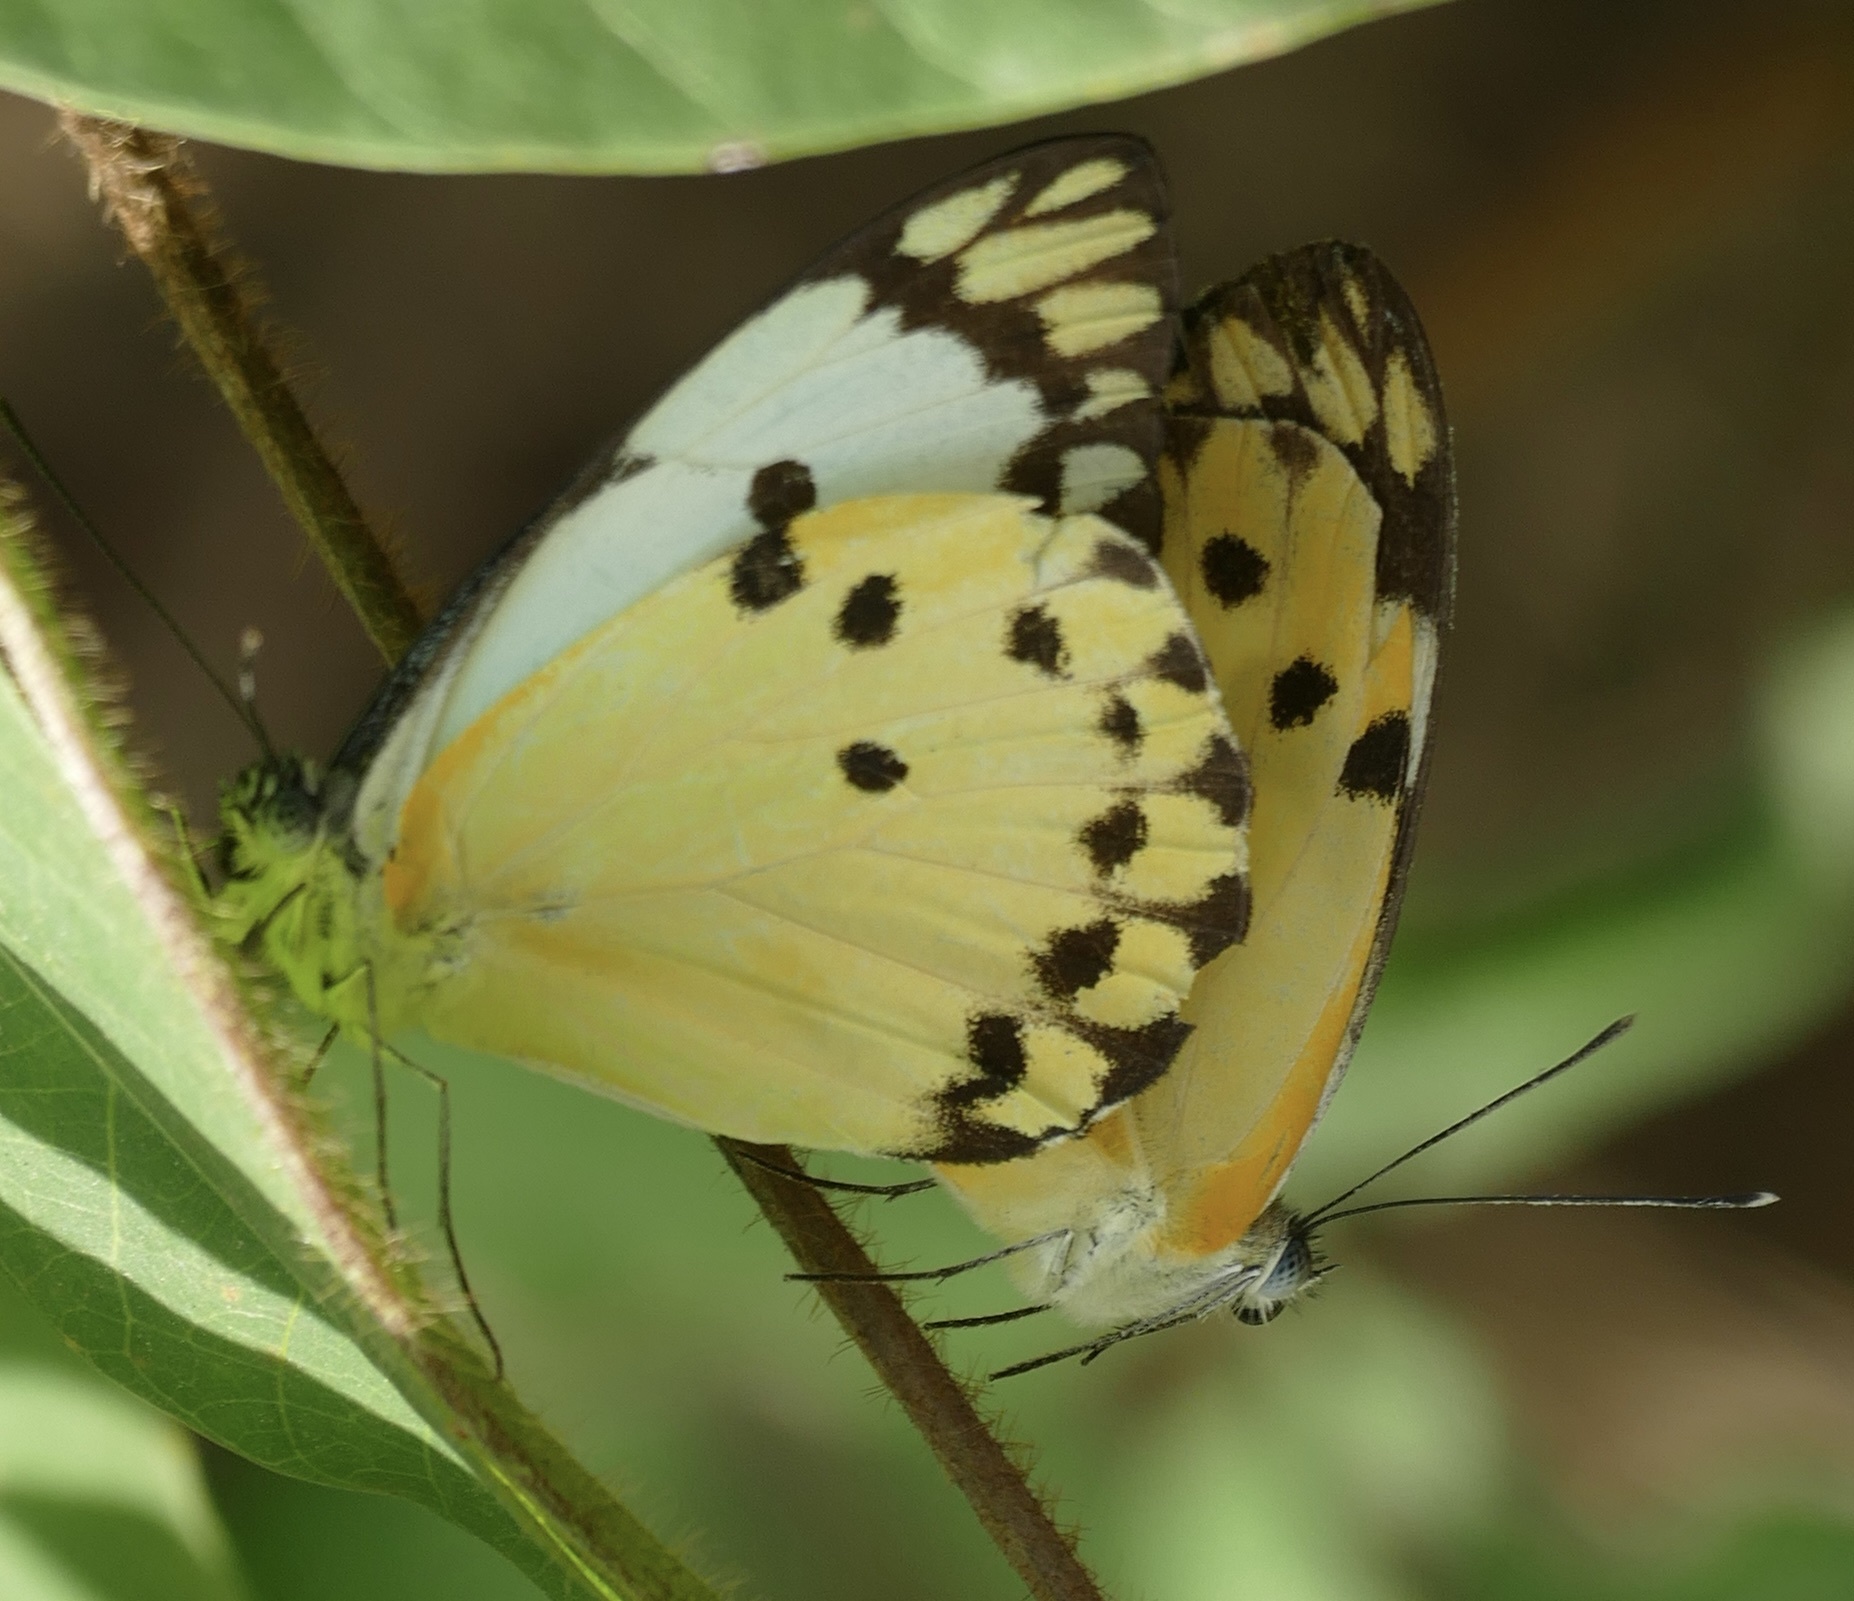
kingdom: Animalia
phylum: Arthropoda
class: Insecta
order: Lepidoptera
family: Pieridae
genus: Belenois
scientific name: Belenois calypso
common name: Calypso caper white
